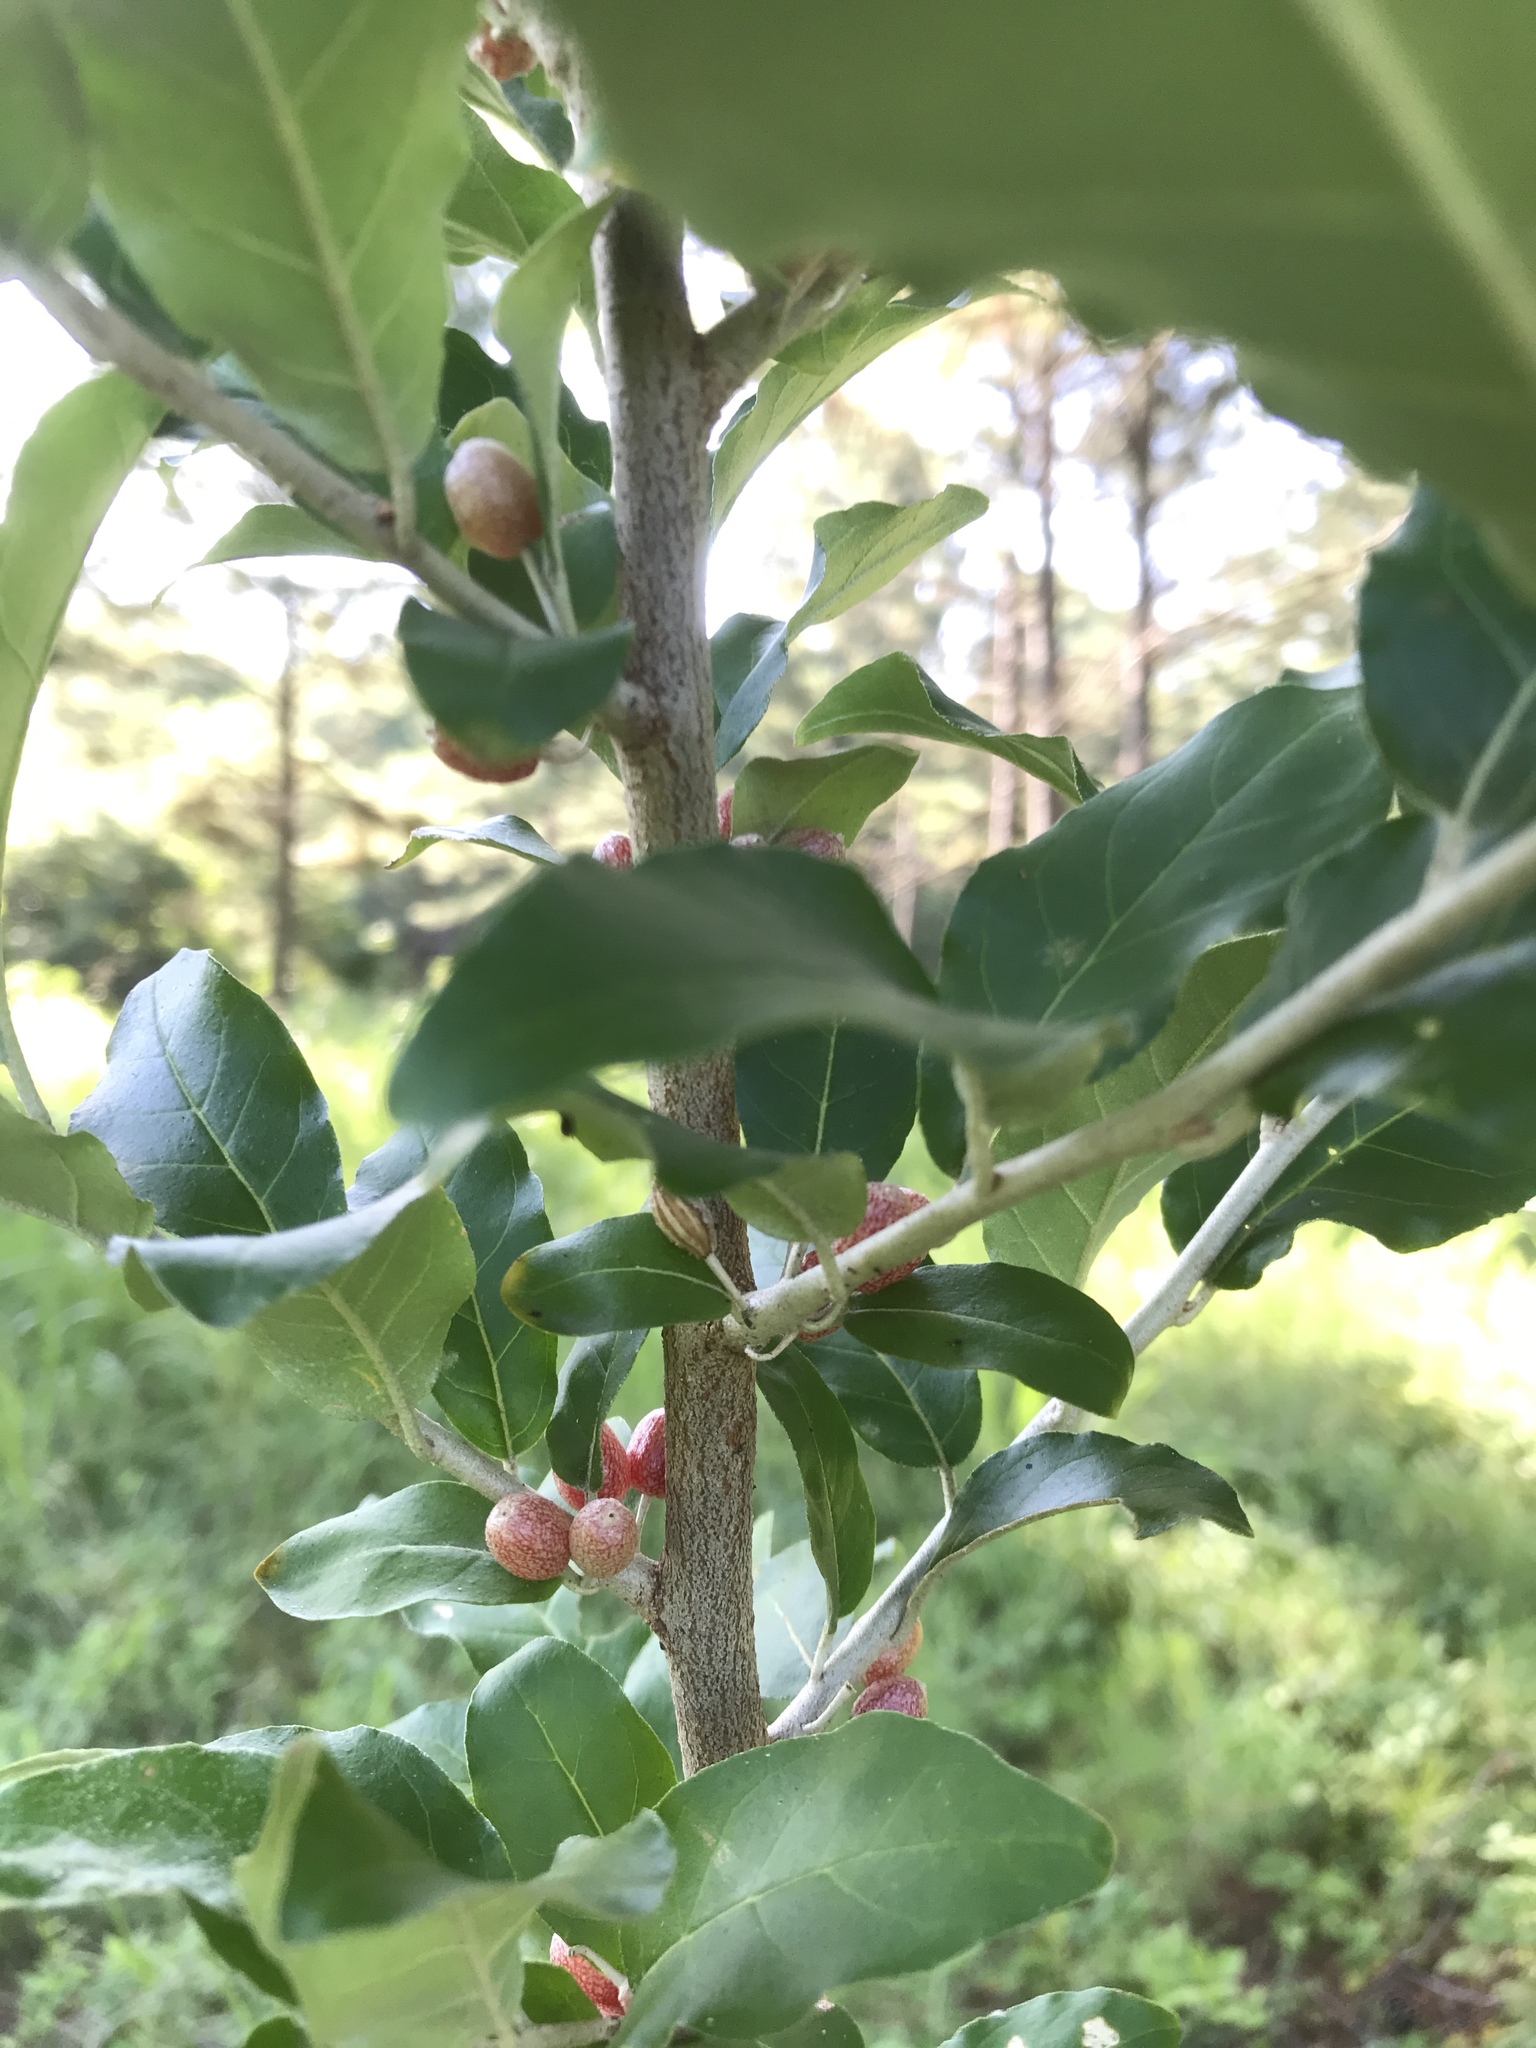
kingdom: Plantae
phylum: Tracheophyta
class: Magnoliopsida
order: Rosales
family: Elaeagnaceae
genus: Elaeagnus
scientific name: Elaeagnus umbellata
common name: Autumn olive
